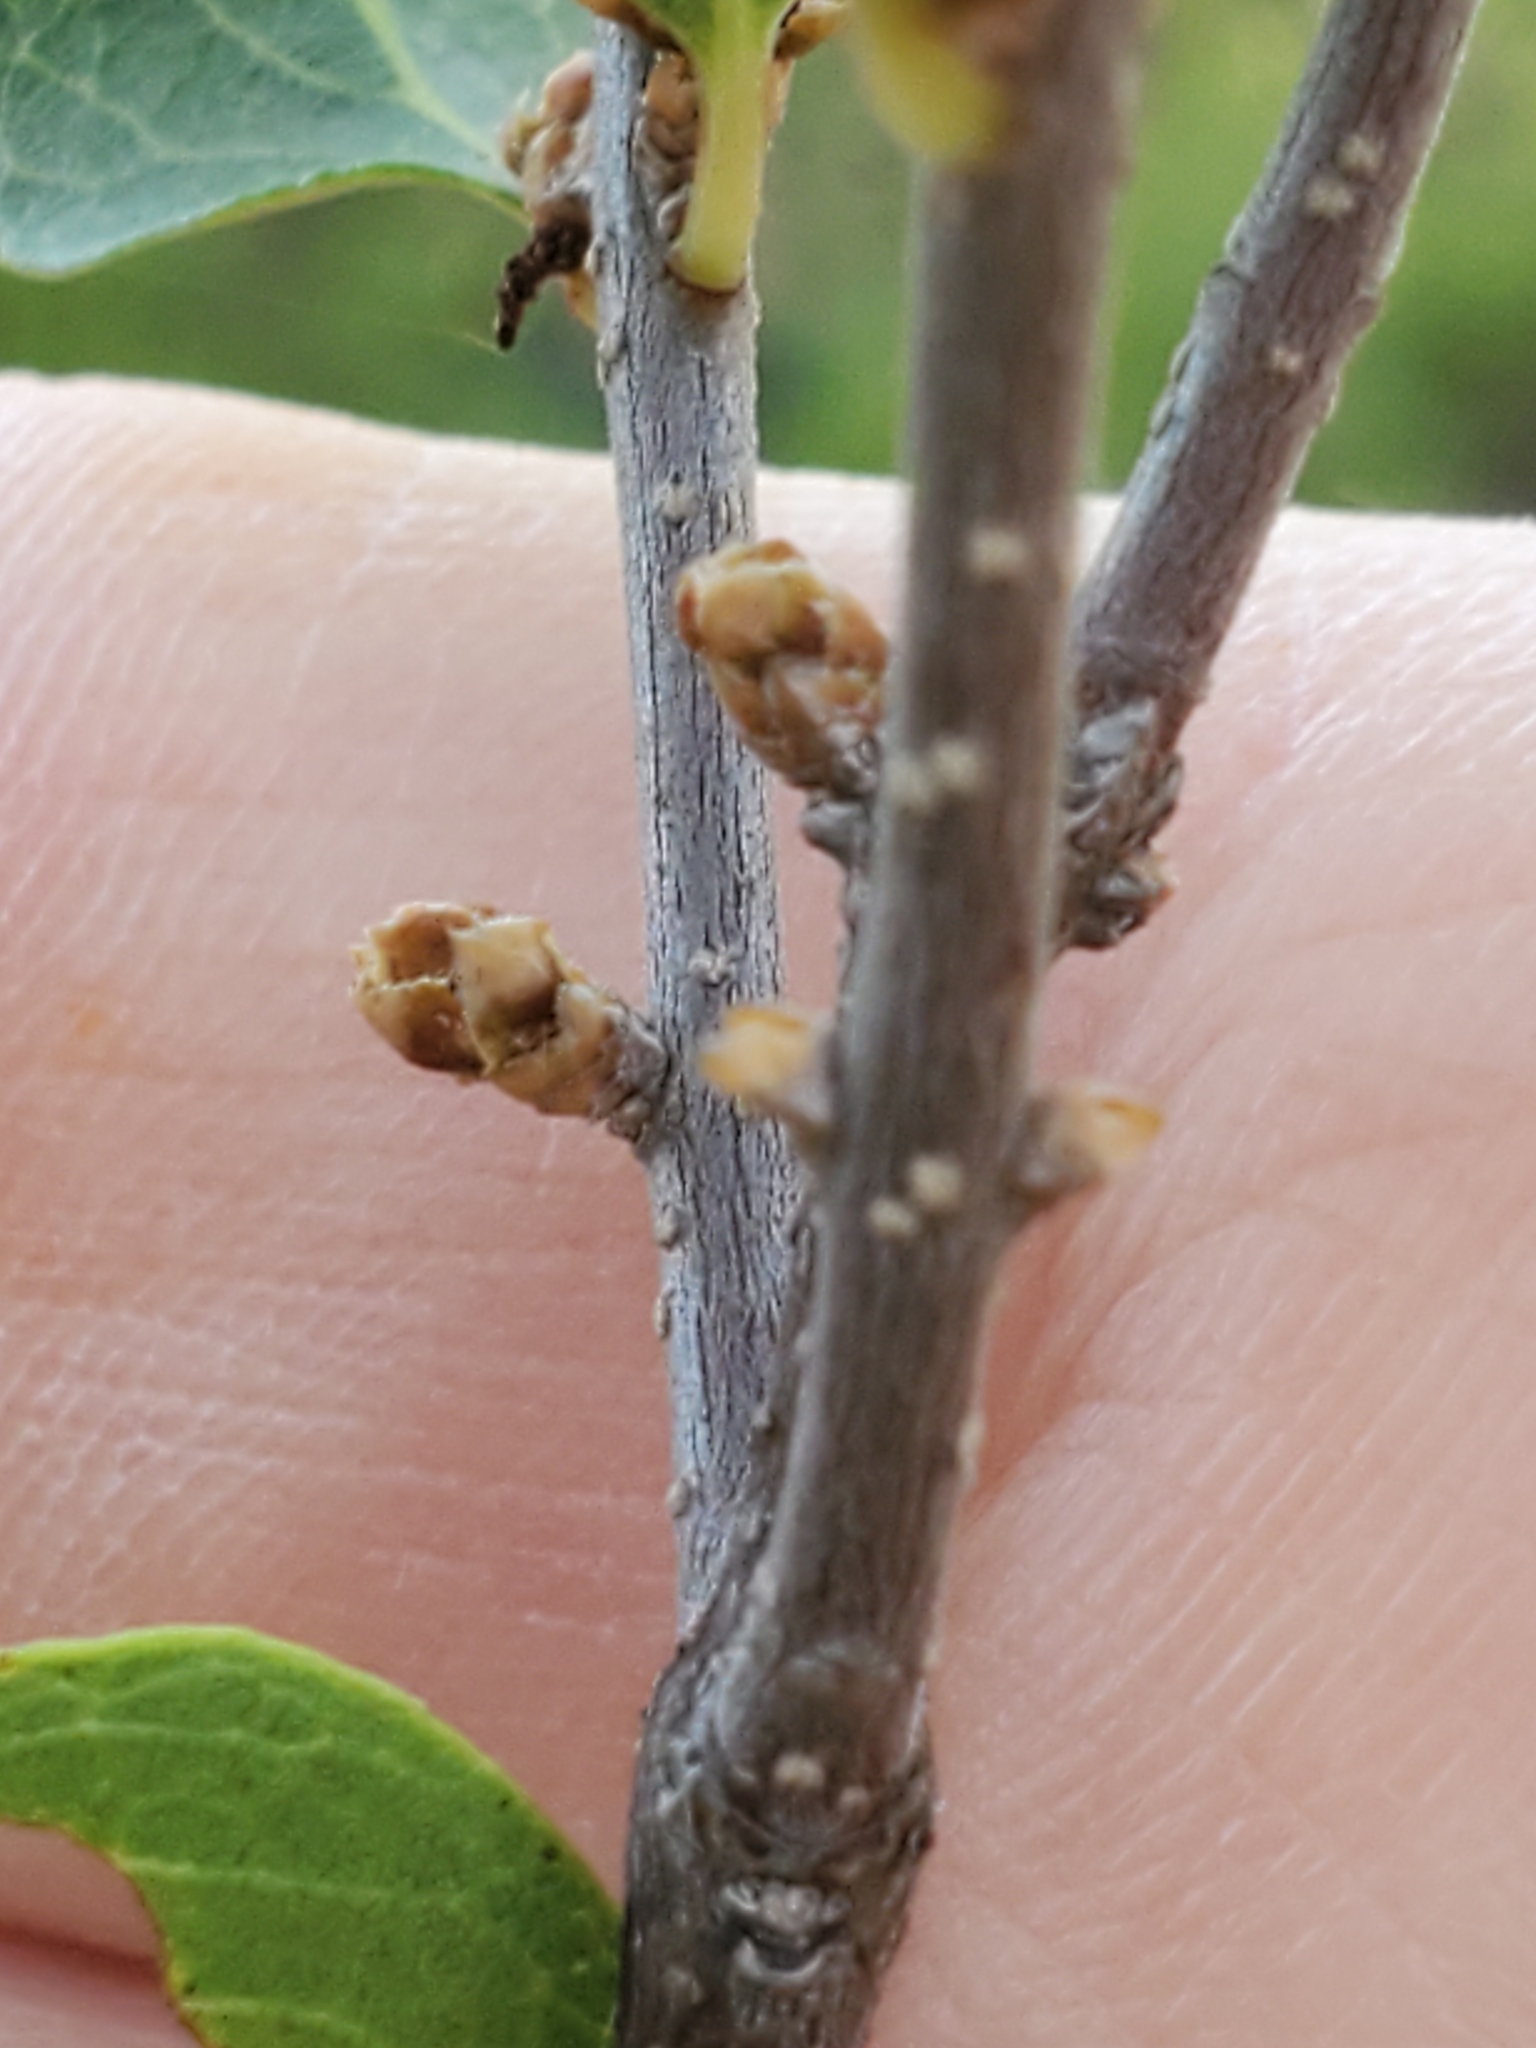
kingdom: Plantae
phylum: Tracheophyta
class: Magnoliopsida
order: Lamiales
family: Oleaceae
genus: Forestiera
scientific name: Forestiera reticulata
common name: Netleaf swamp-privet
